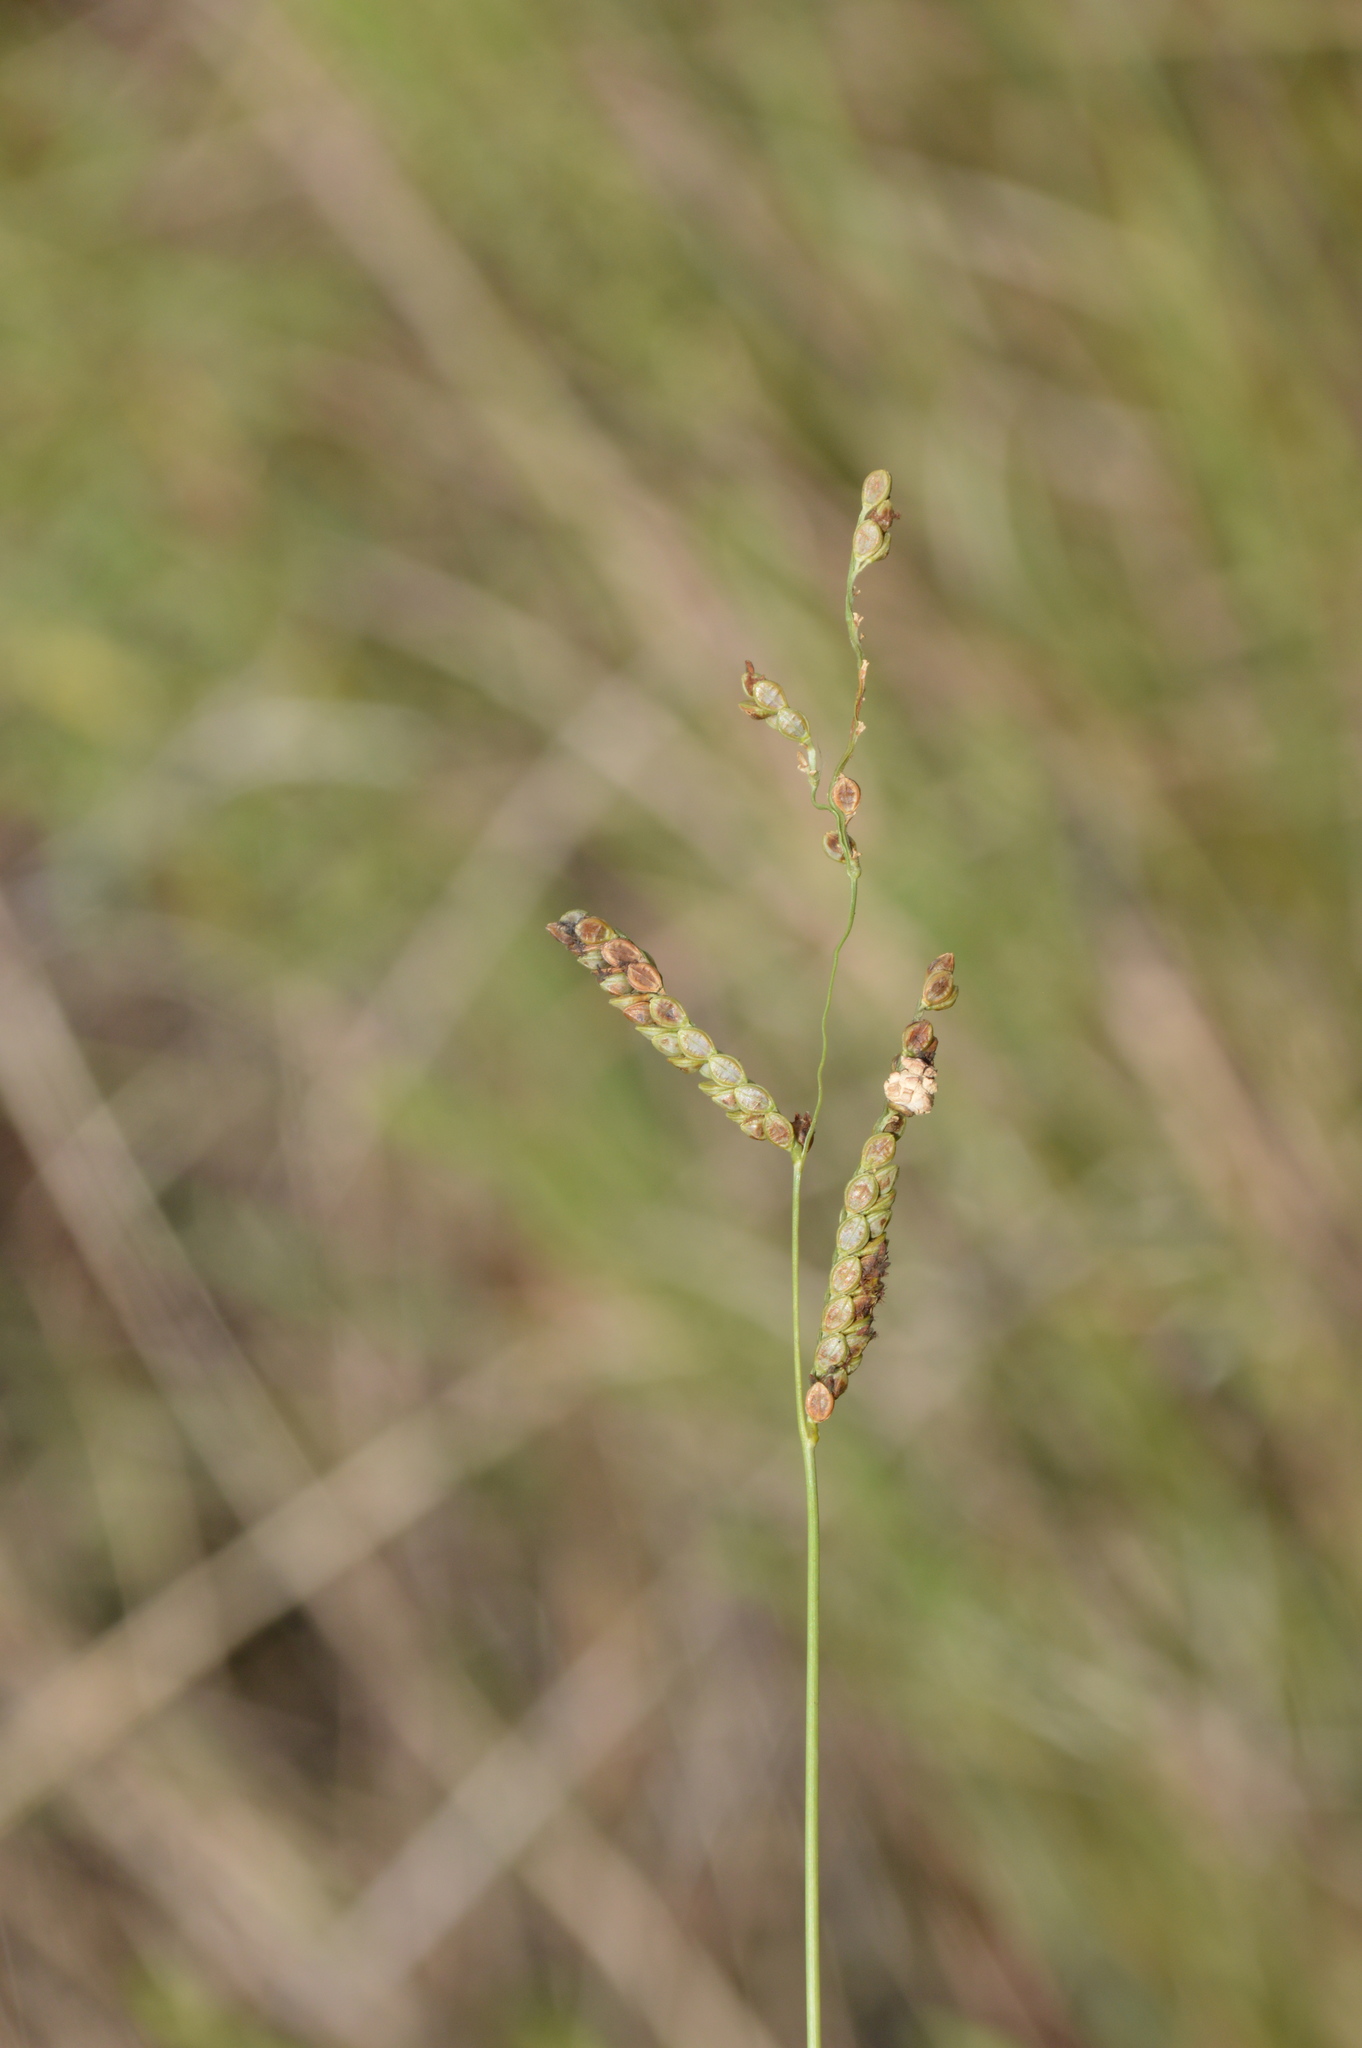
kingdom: Fungi
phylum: Ascomycota
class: Sordariomycetes
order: Hypocreales
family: Clavicipitaceae
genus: Claviceps
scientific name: Claviceps paspali
